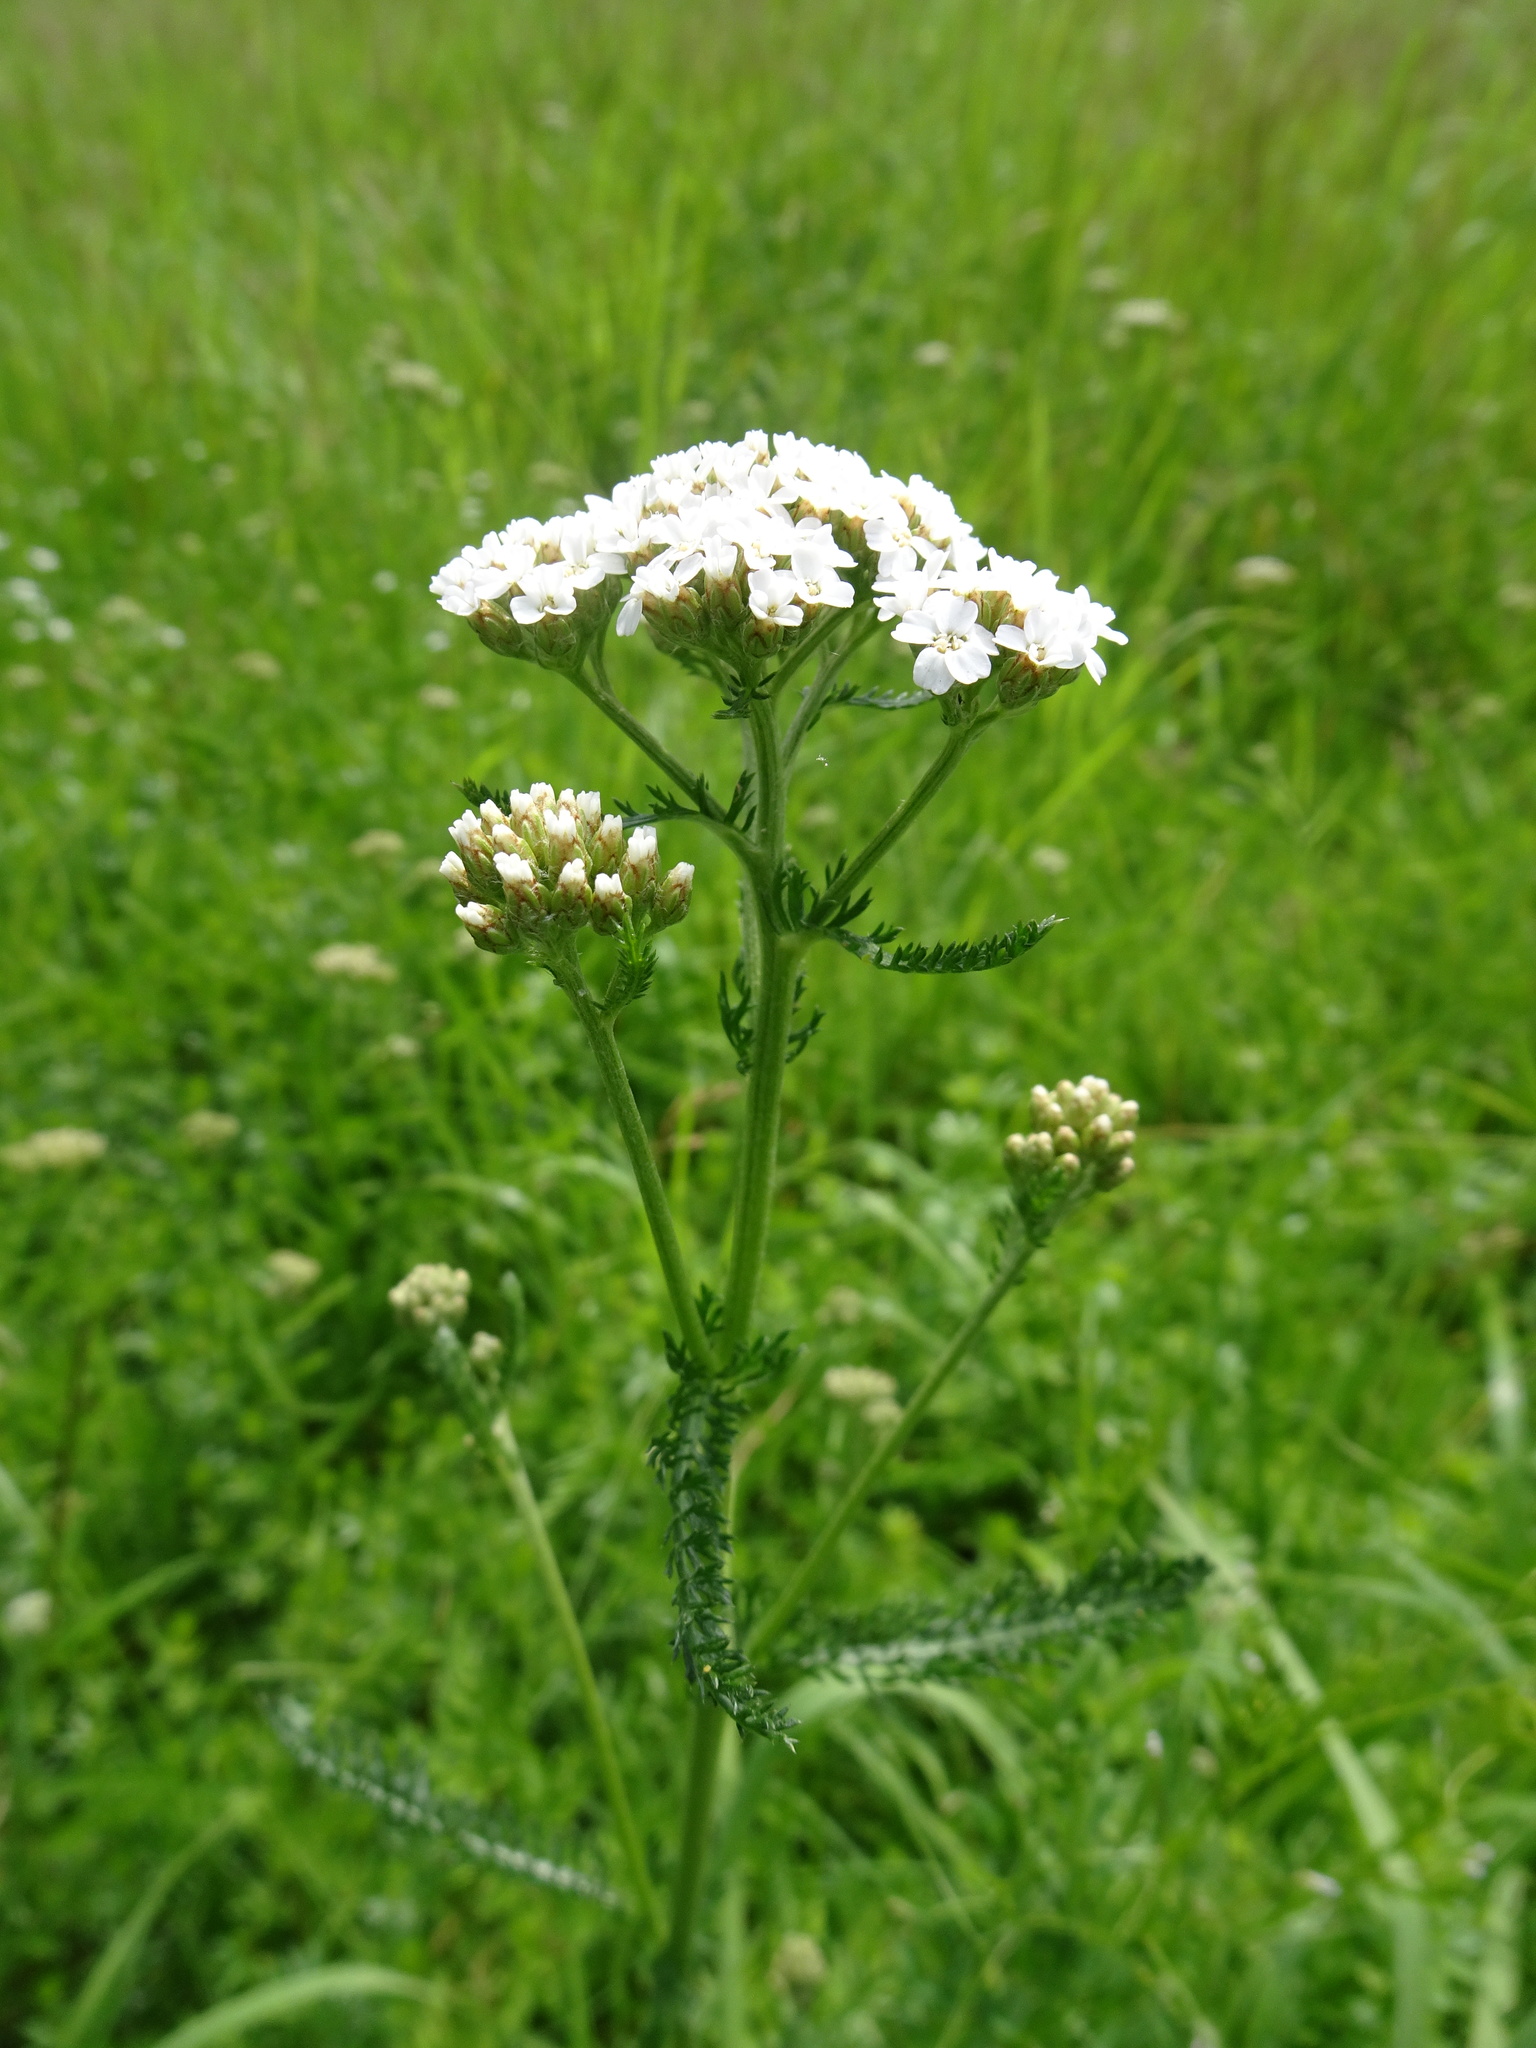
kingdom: Plantae
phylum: Tracheophyta
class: Magnoliopsida
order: Asterales
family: Asteraceae
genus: Achillea
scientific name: Achillea millefolium
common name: Yarrow
